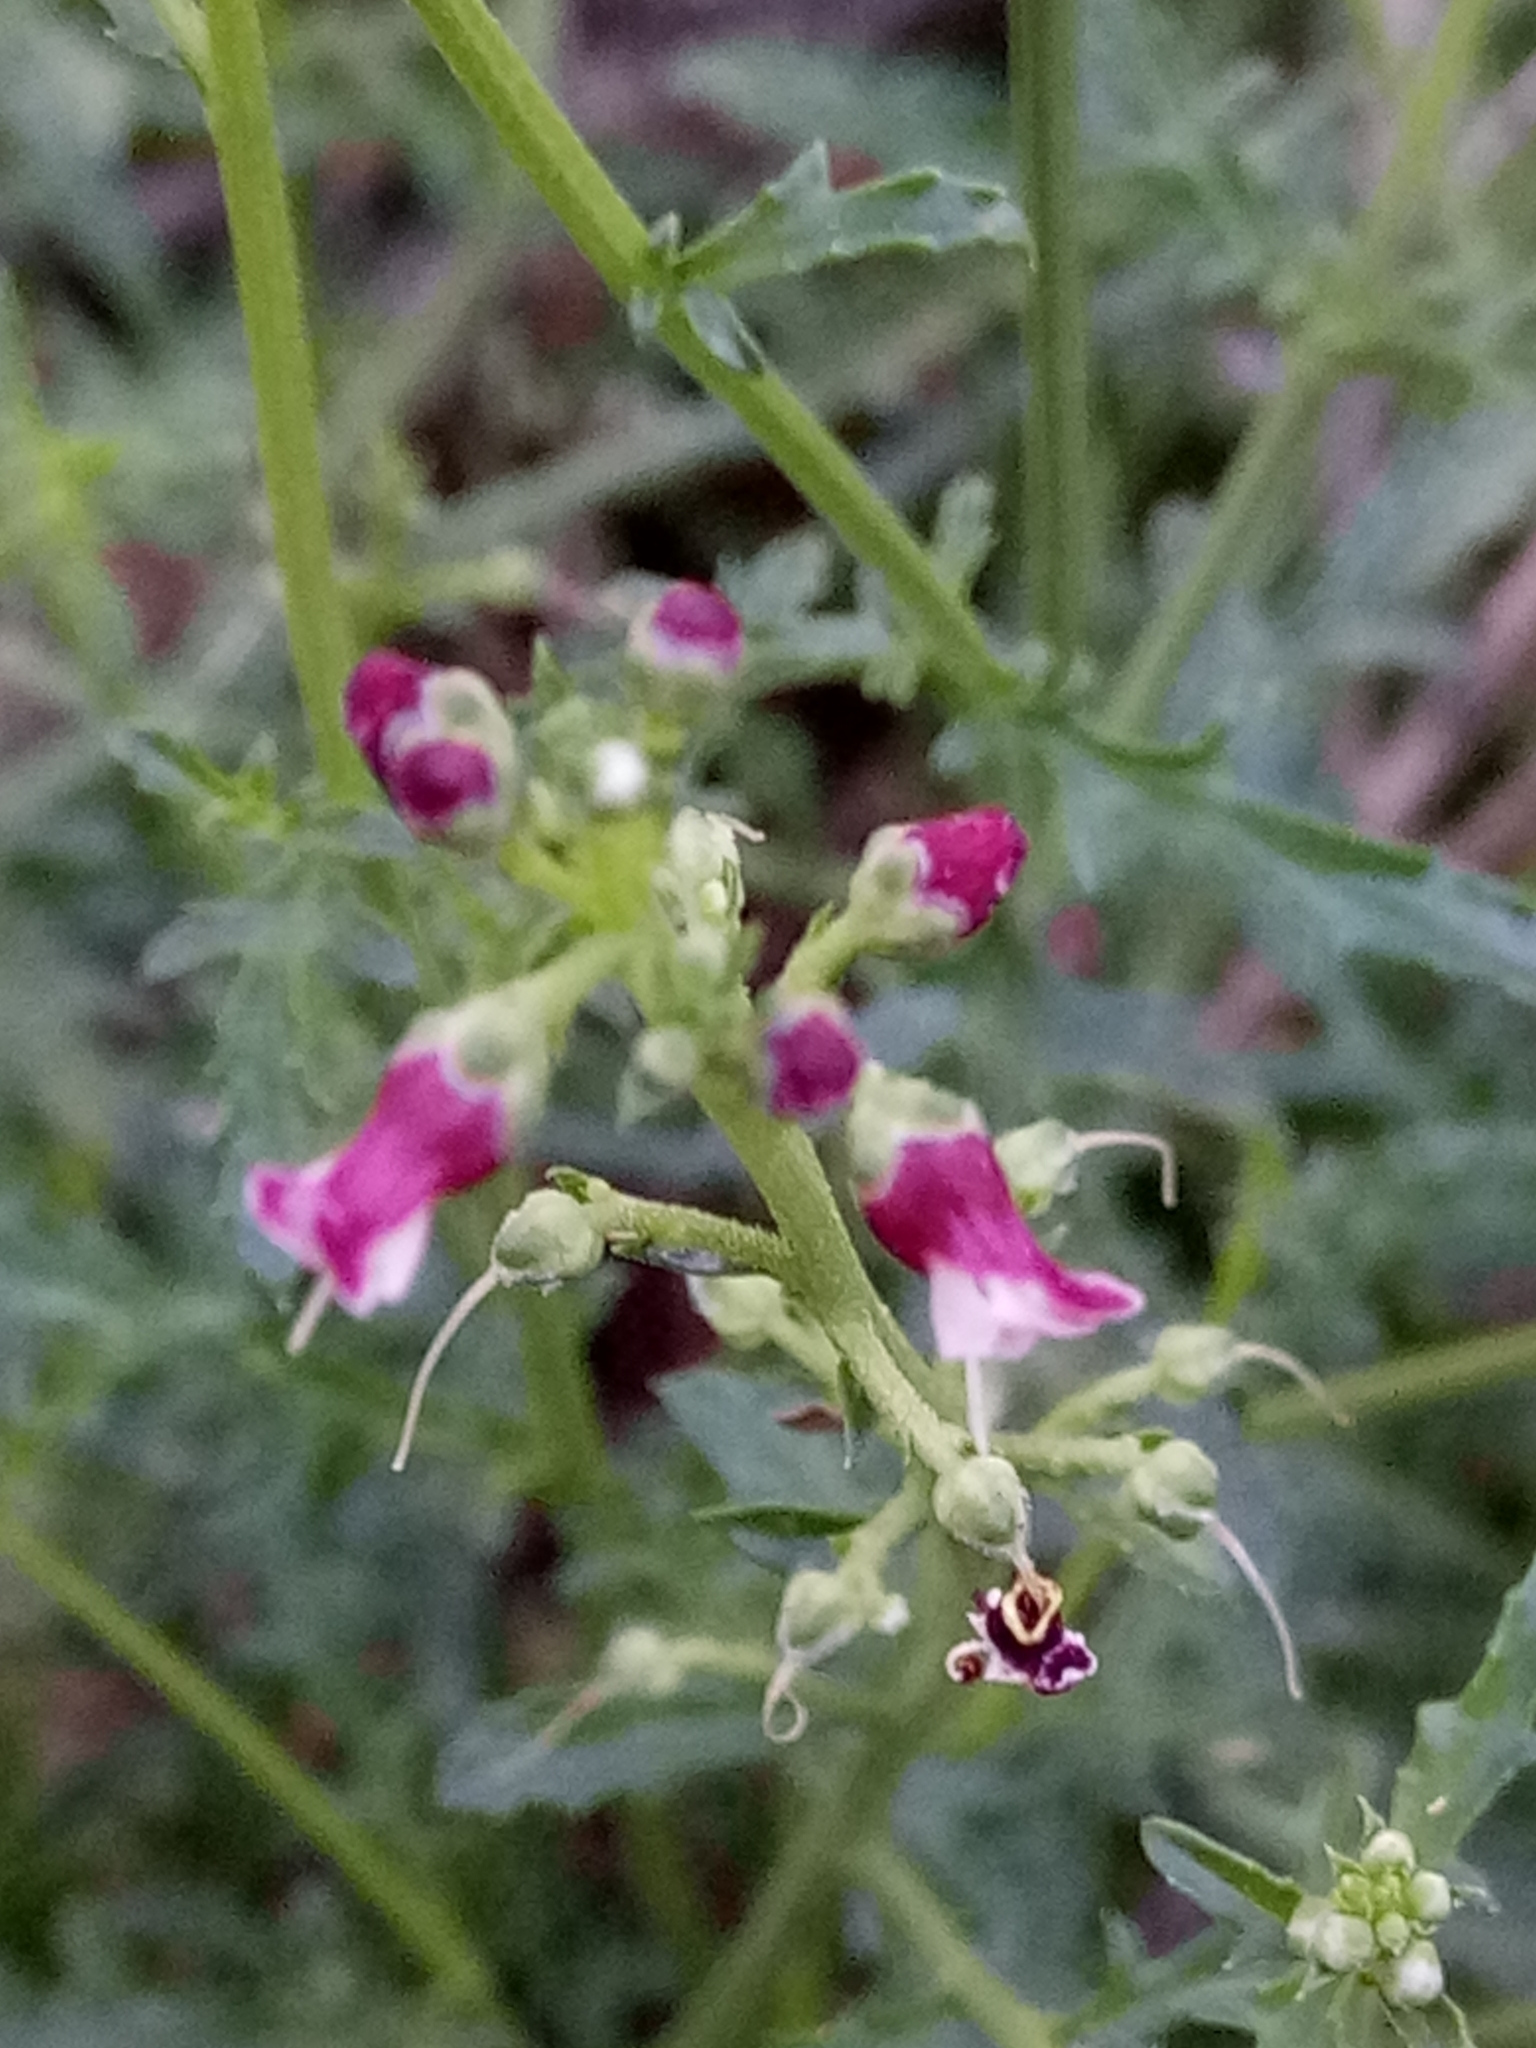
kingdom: Plantae
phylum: Tracheophyta
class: Magnoliopsida
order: Lamiales
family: Scrophulariaceae
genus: Scrophularia
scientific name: Scrophularia canina
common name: French figwort
